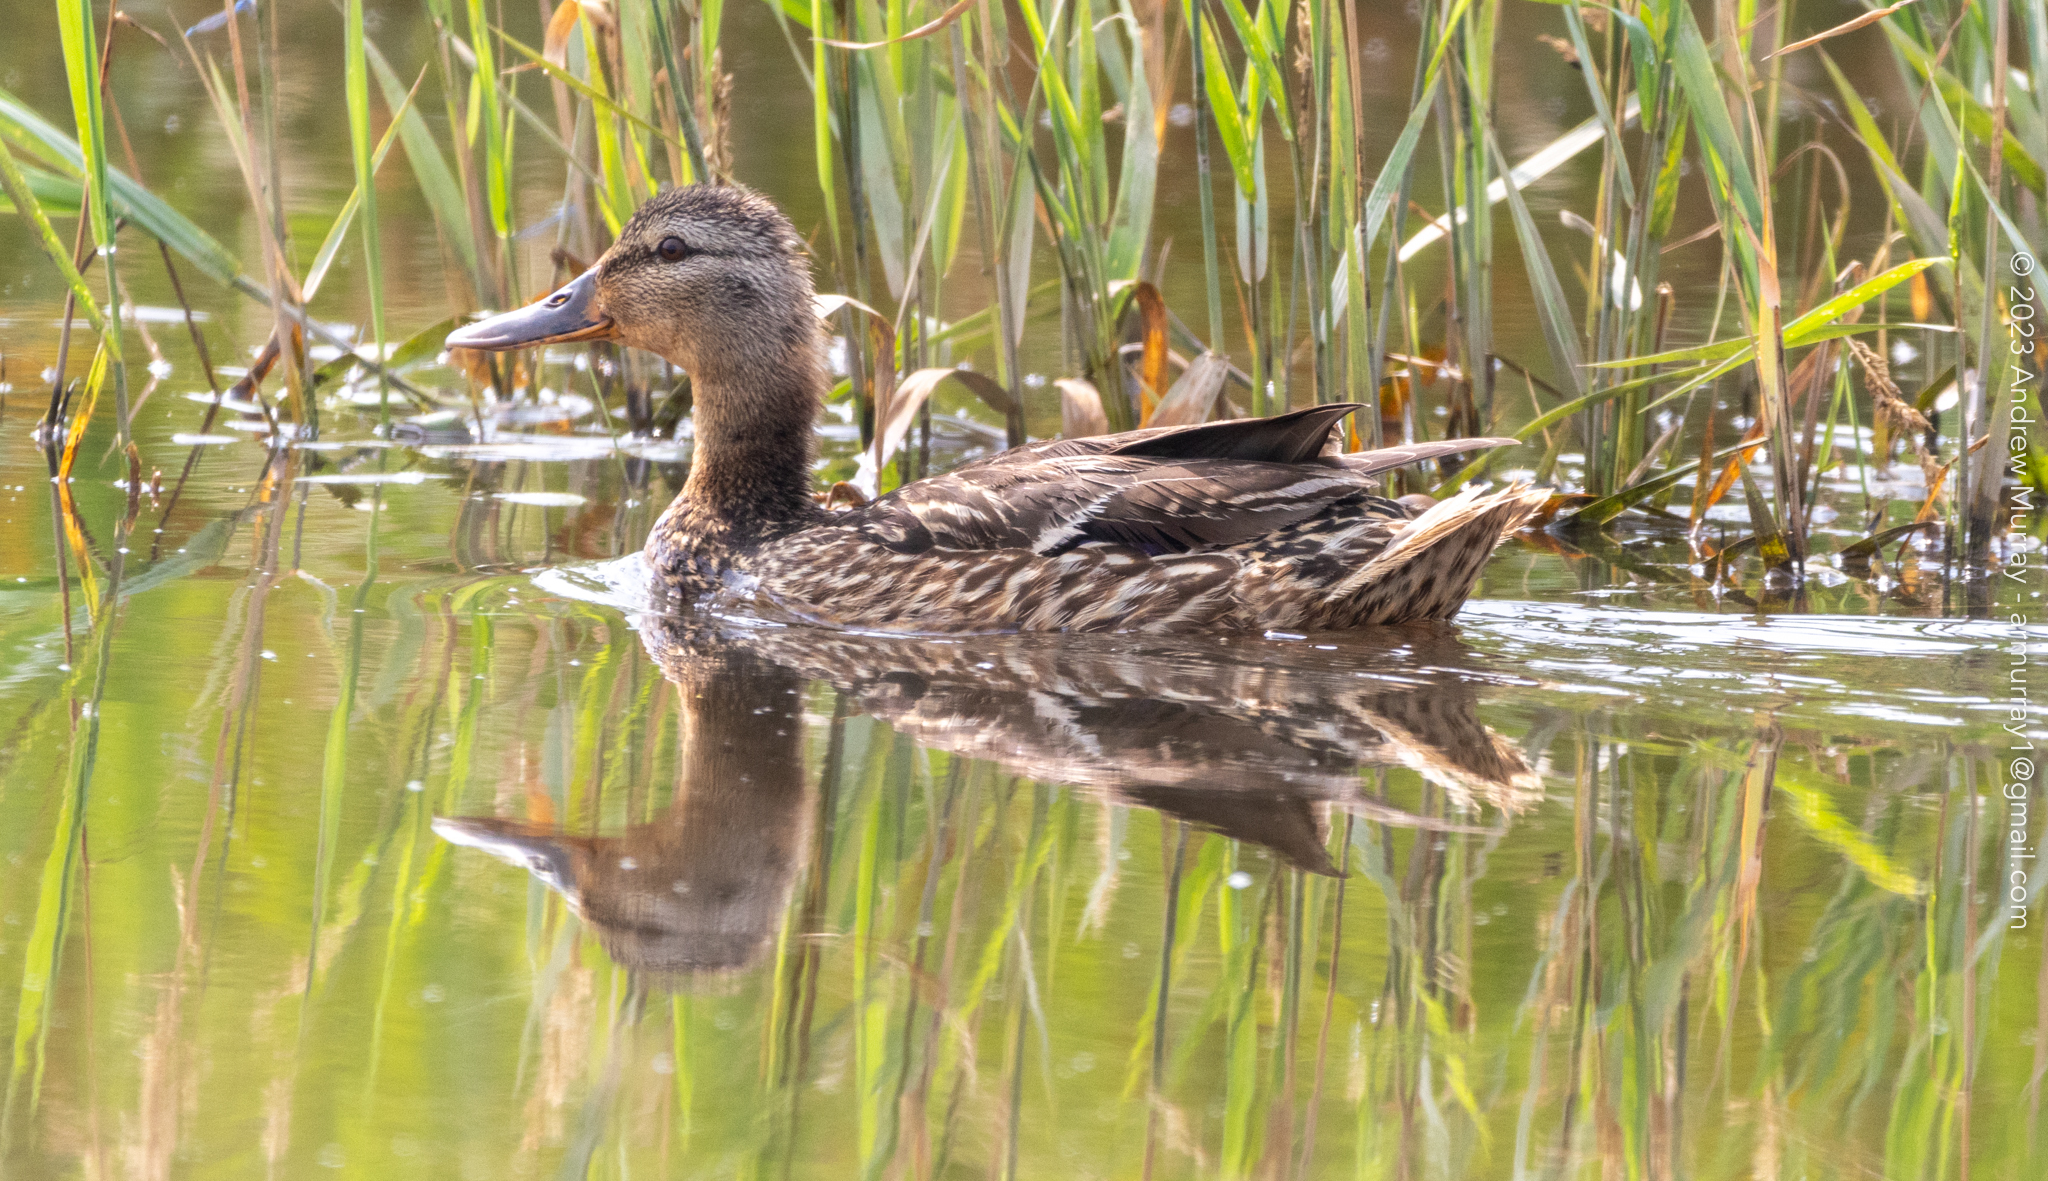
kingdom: Animalia
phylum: Chordata
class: Aves
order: Anseriformes
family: Anatidae
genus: Anas
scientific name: Anas platyrhynchos
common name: Mallard
